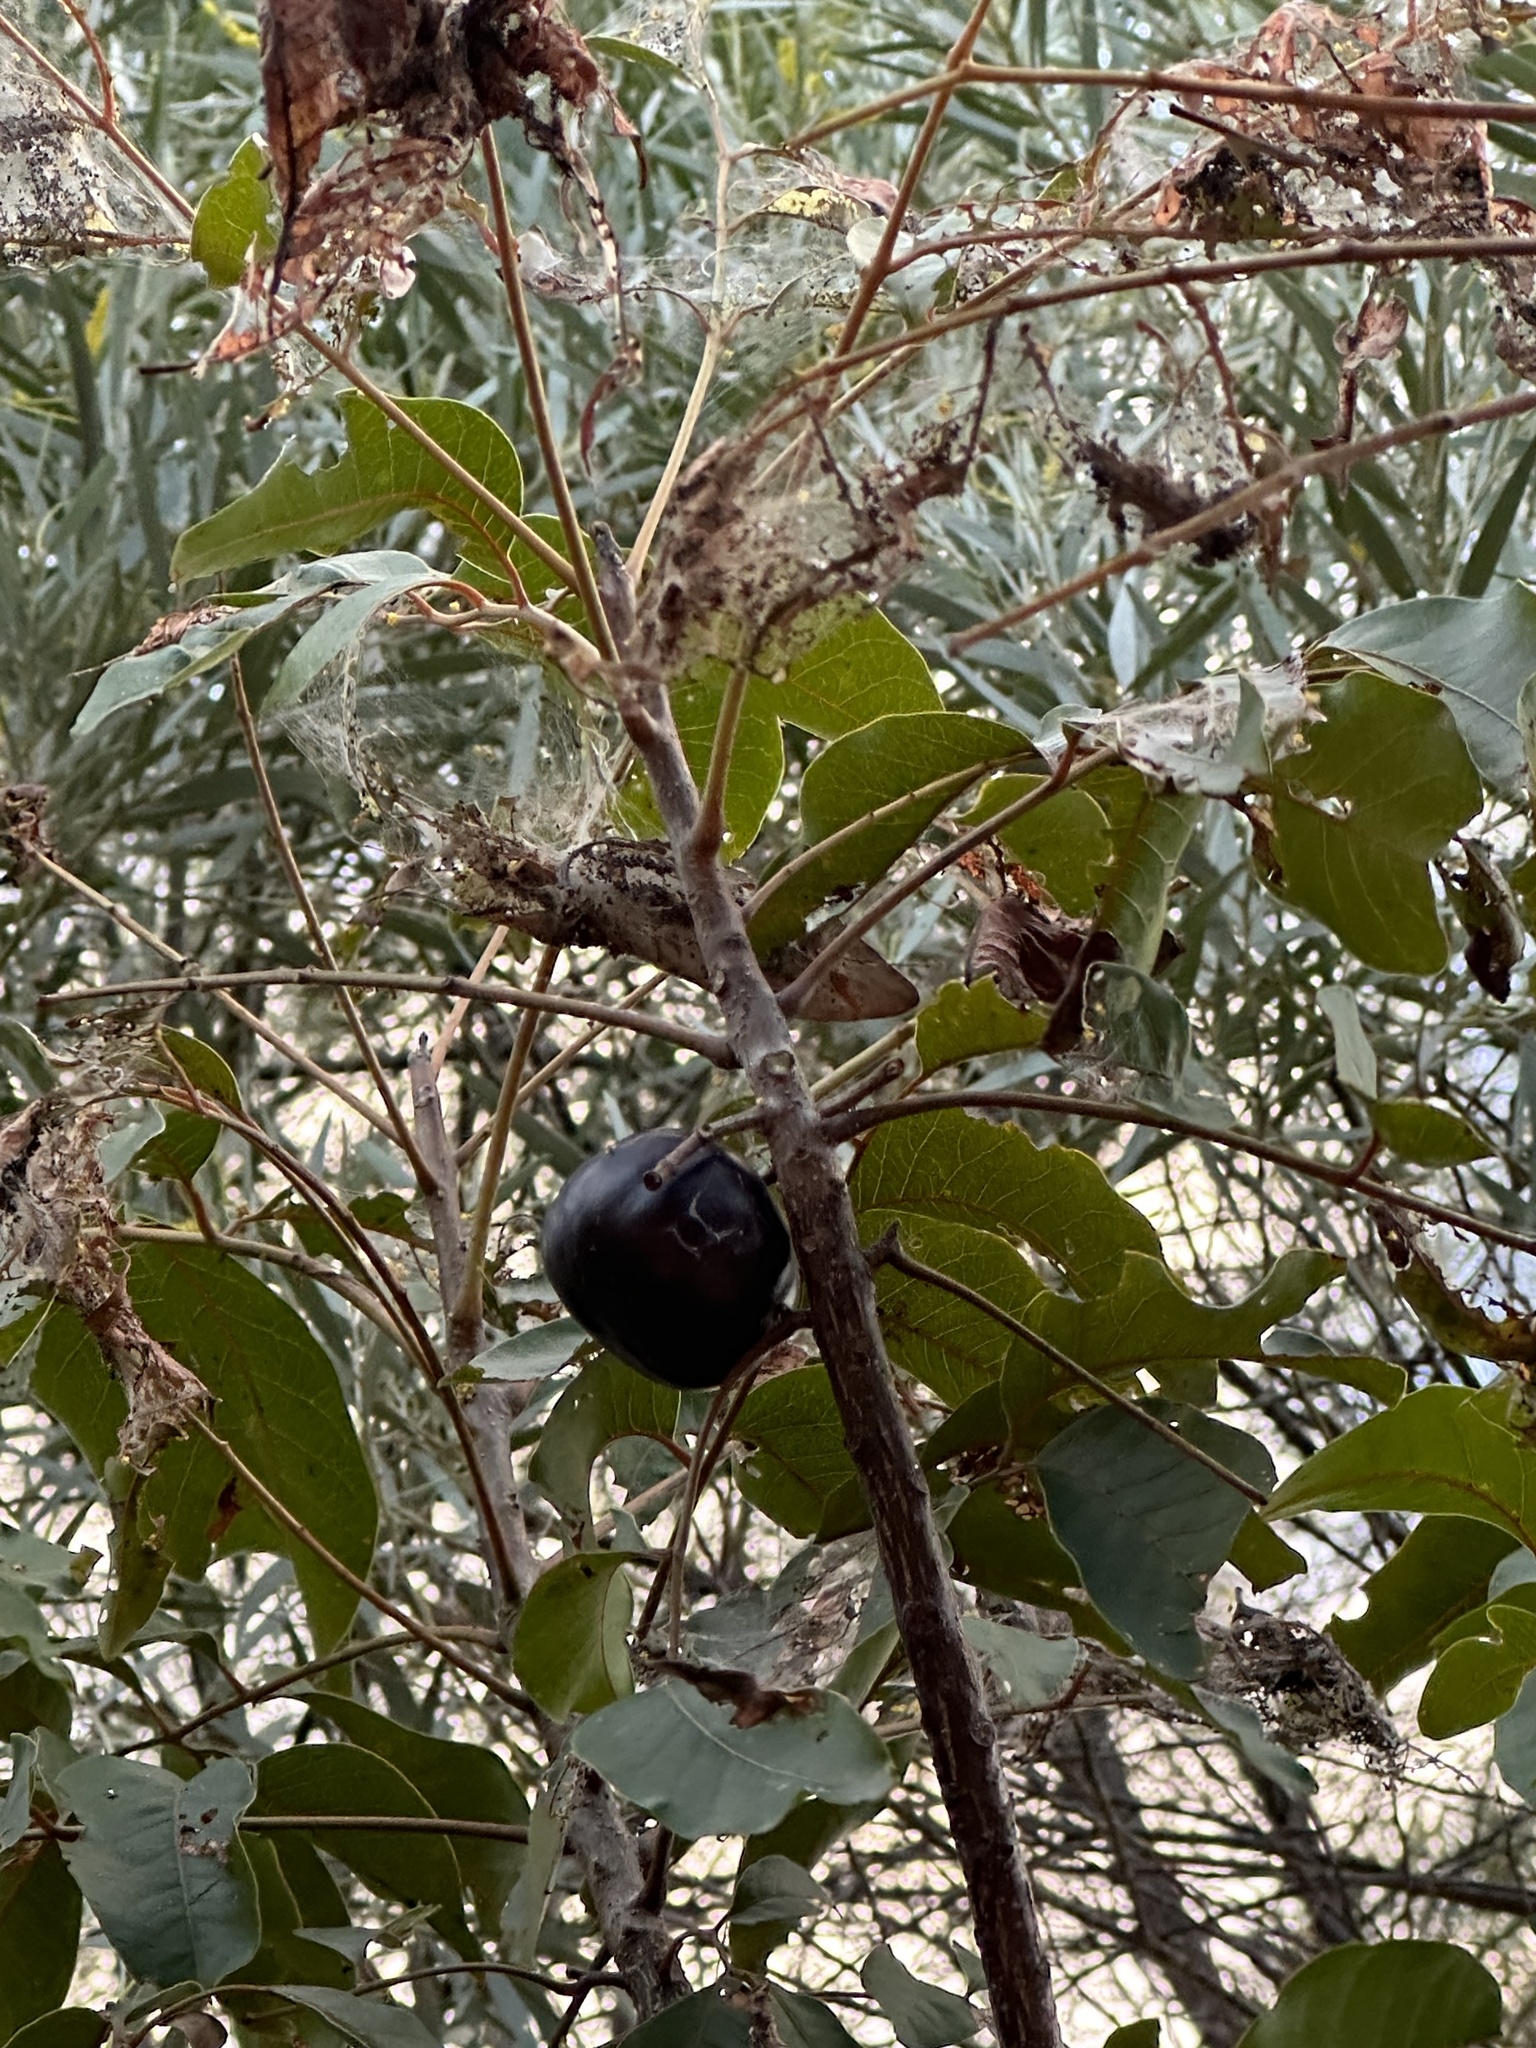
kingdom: Plantae
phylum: Tracheophyta
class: Magnoliopsida
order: Sapindales
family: Anacardiaceae
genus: Pleiogynium
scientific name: Pleiogynium timoriense
